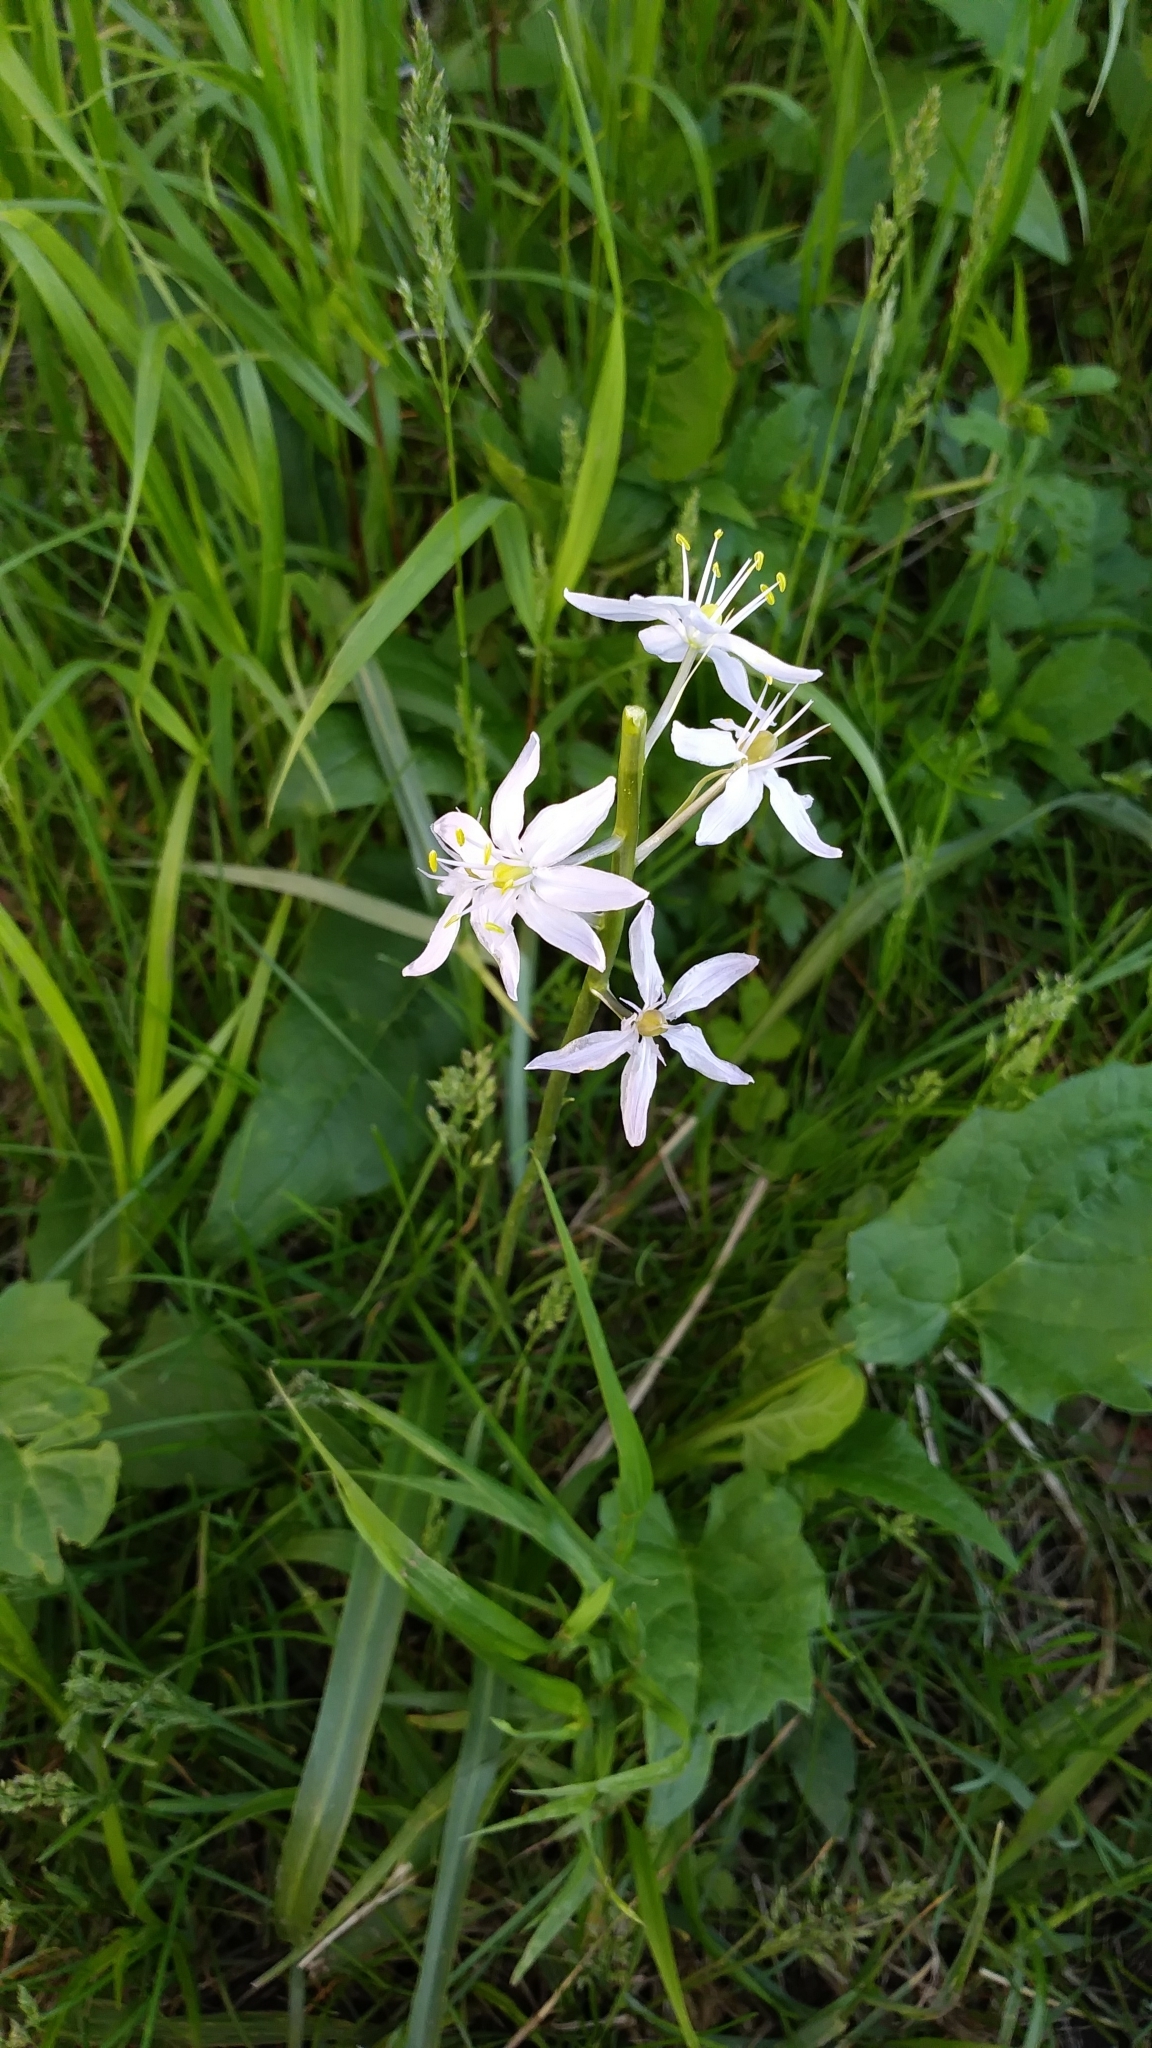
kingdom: Plantae
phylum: Tracheophyta
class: Liliopsida
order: Asparagales
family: Asparagaceae
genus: Camassia
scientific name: Camassia scilloides
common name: Wild hyacinth
